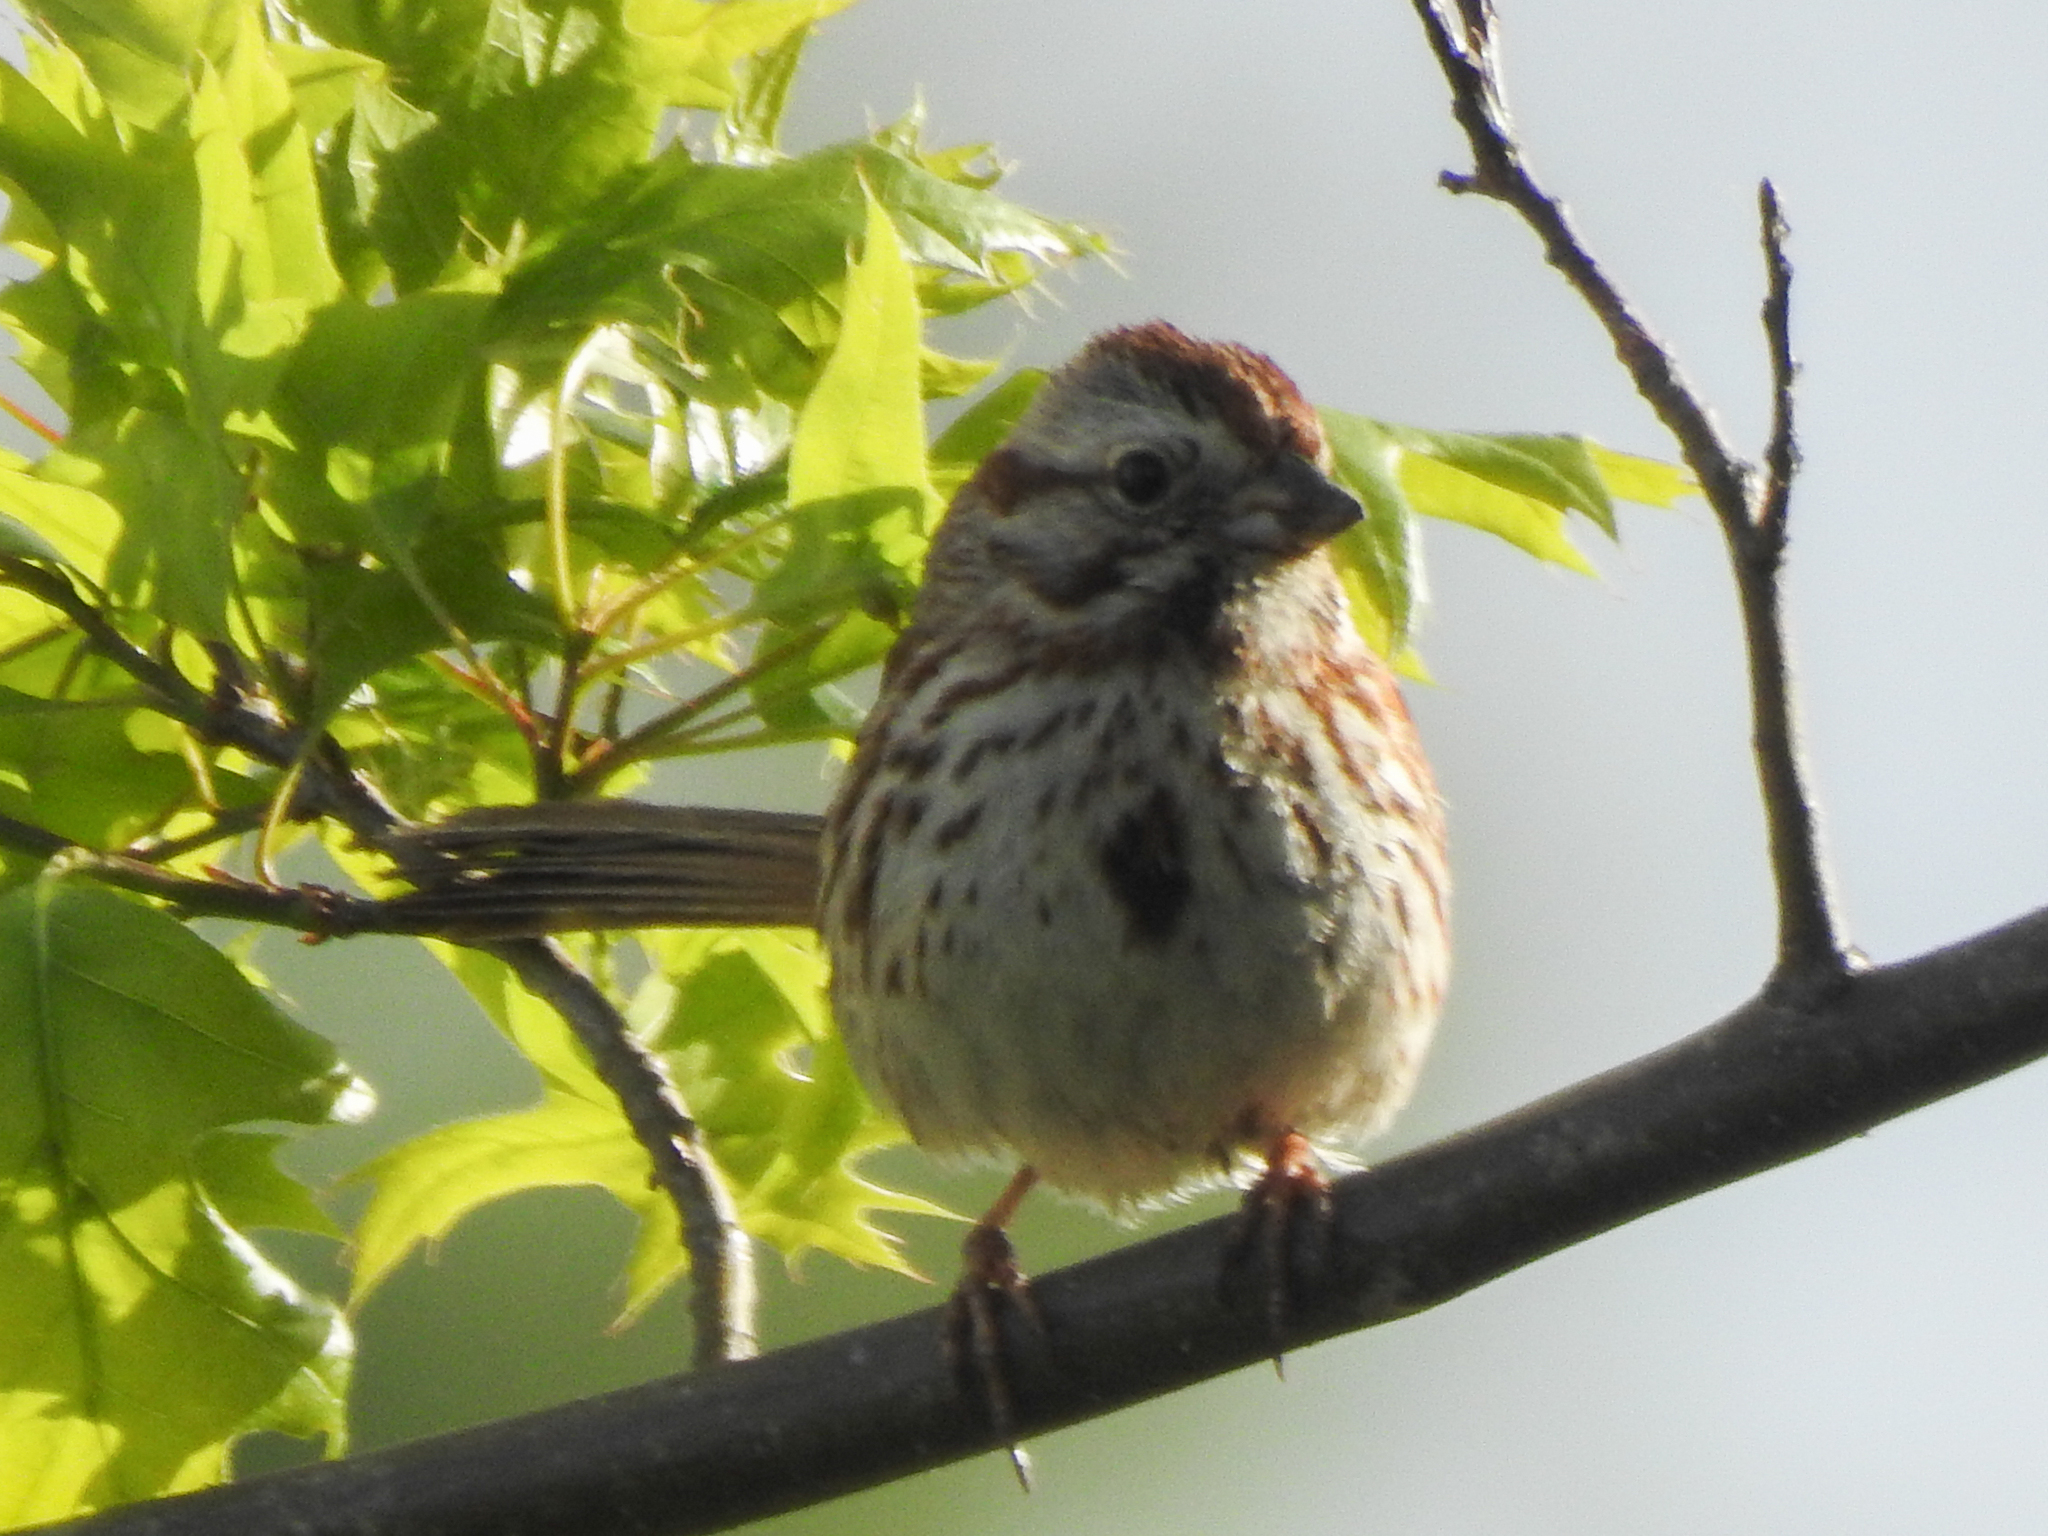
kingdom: Animalia
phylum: Chordata
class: Aves
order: Passeriformes
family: Passerellidae
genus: Melospiza
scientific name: Melospiza melodia
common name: Song sparrow
